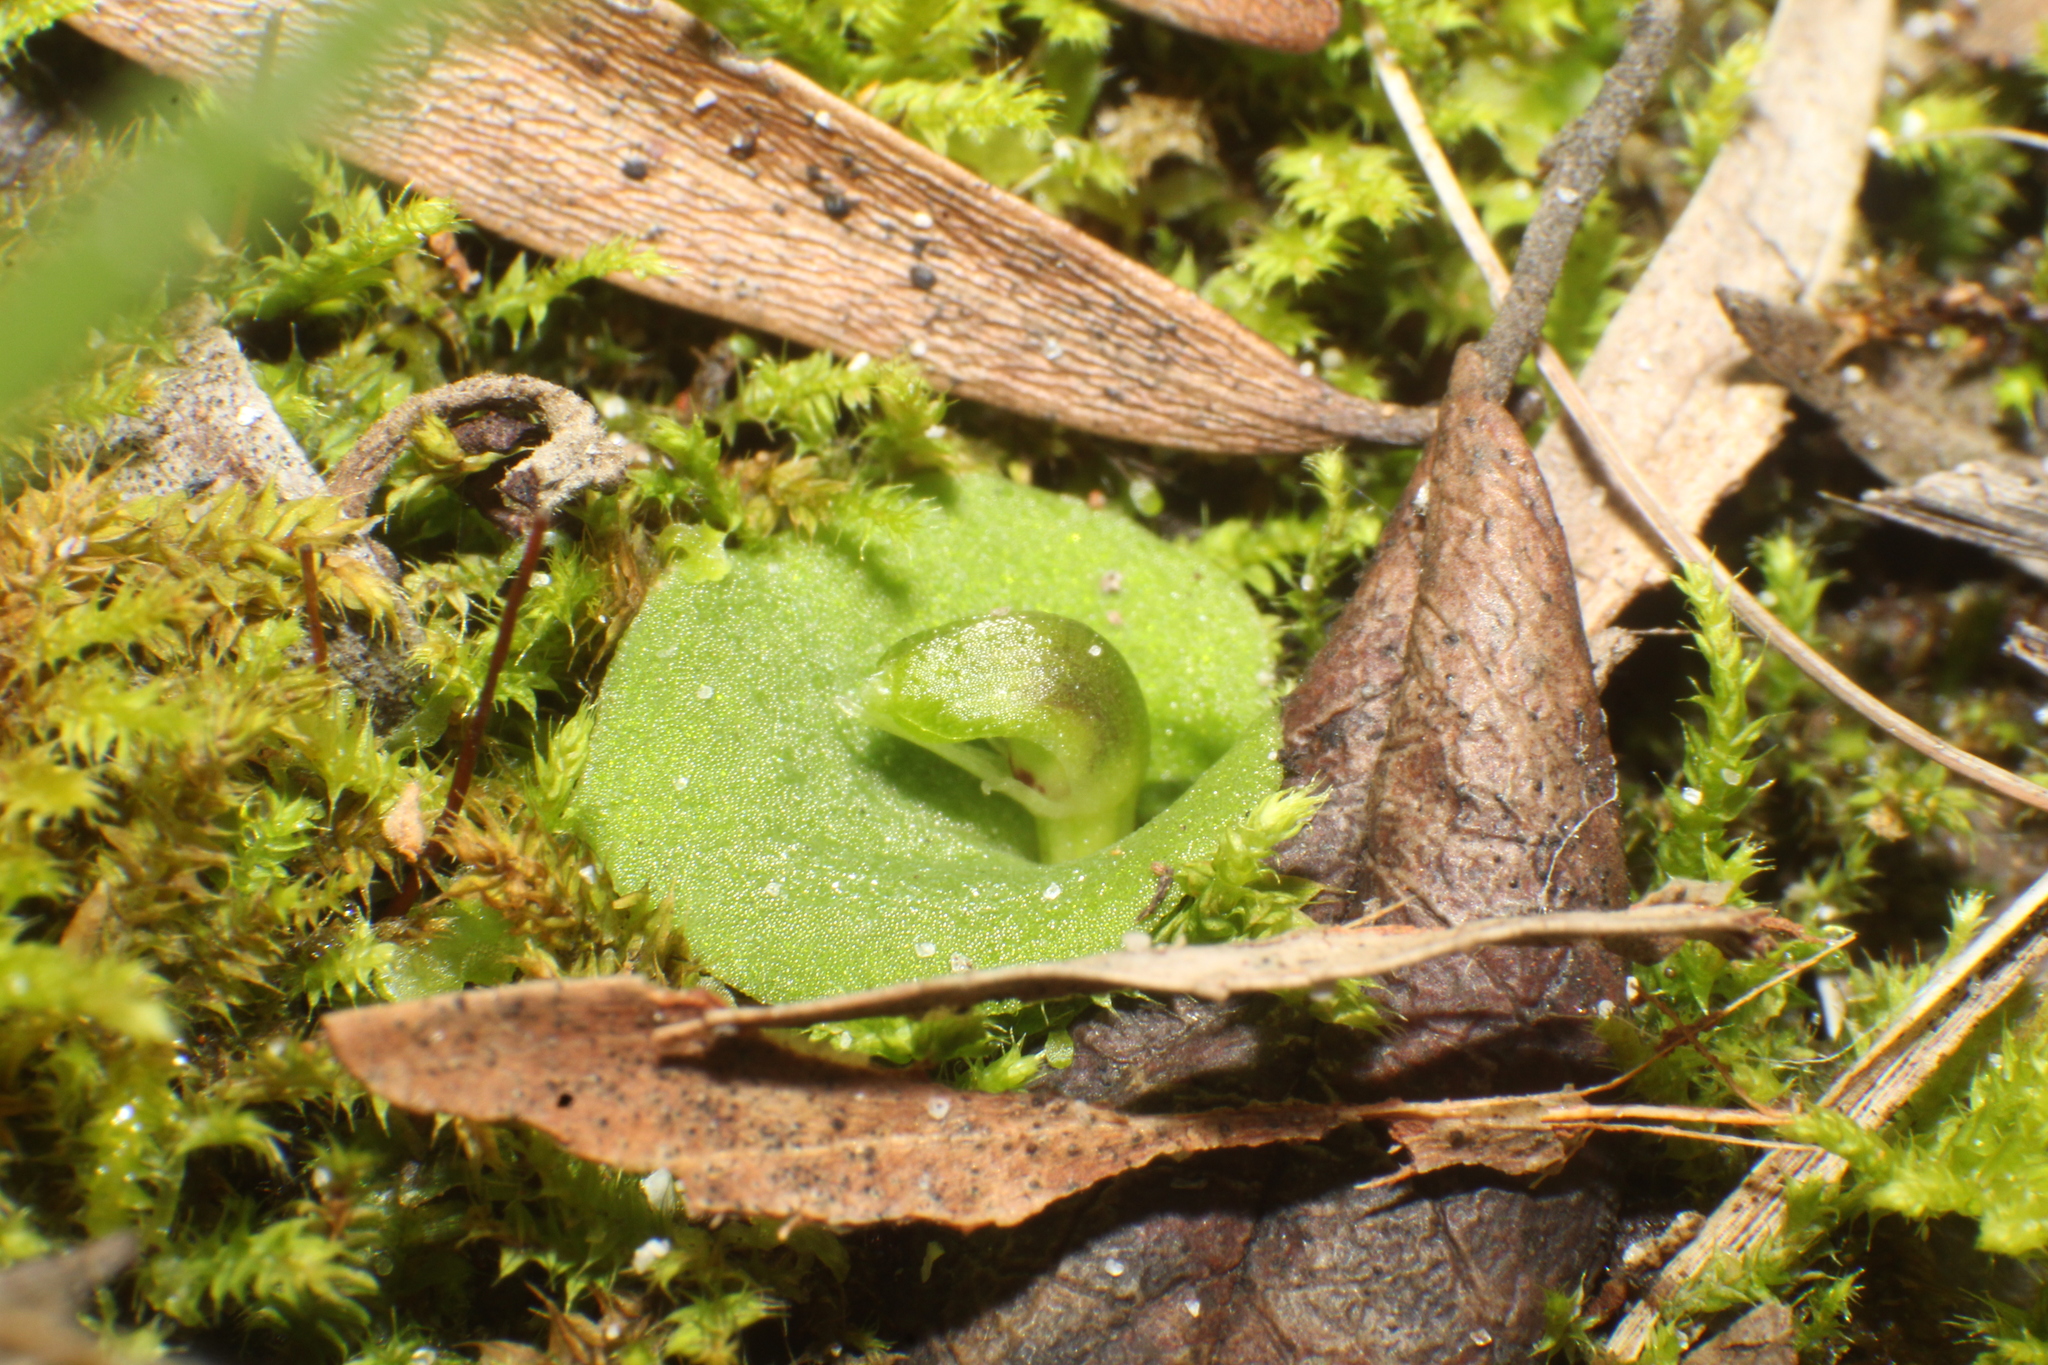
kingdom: Plantae
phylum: Tracheophyta
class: Liliopsida
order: Asparagales
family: Orchidaceae
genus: Corybas
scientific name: Corybas despectans
